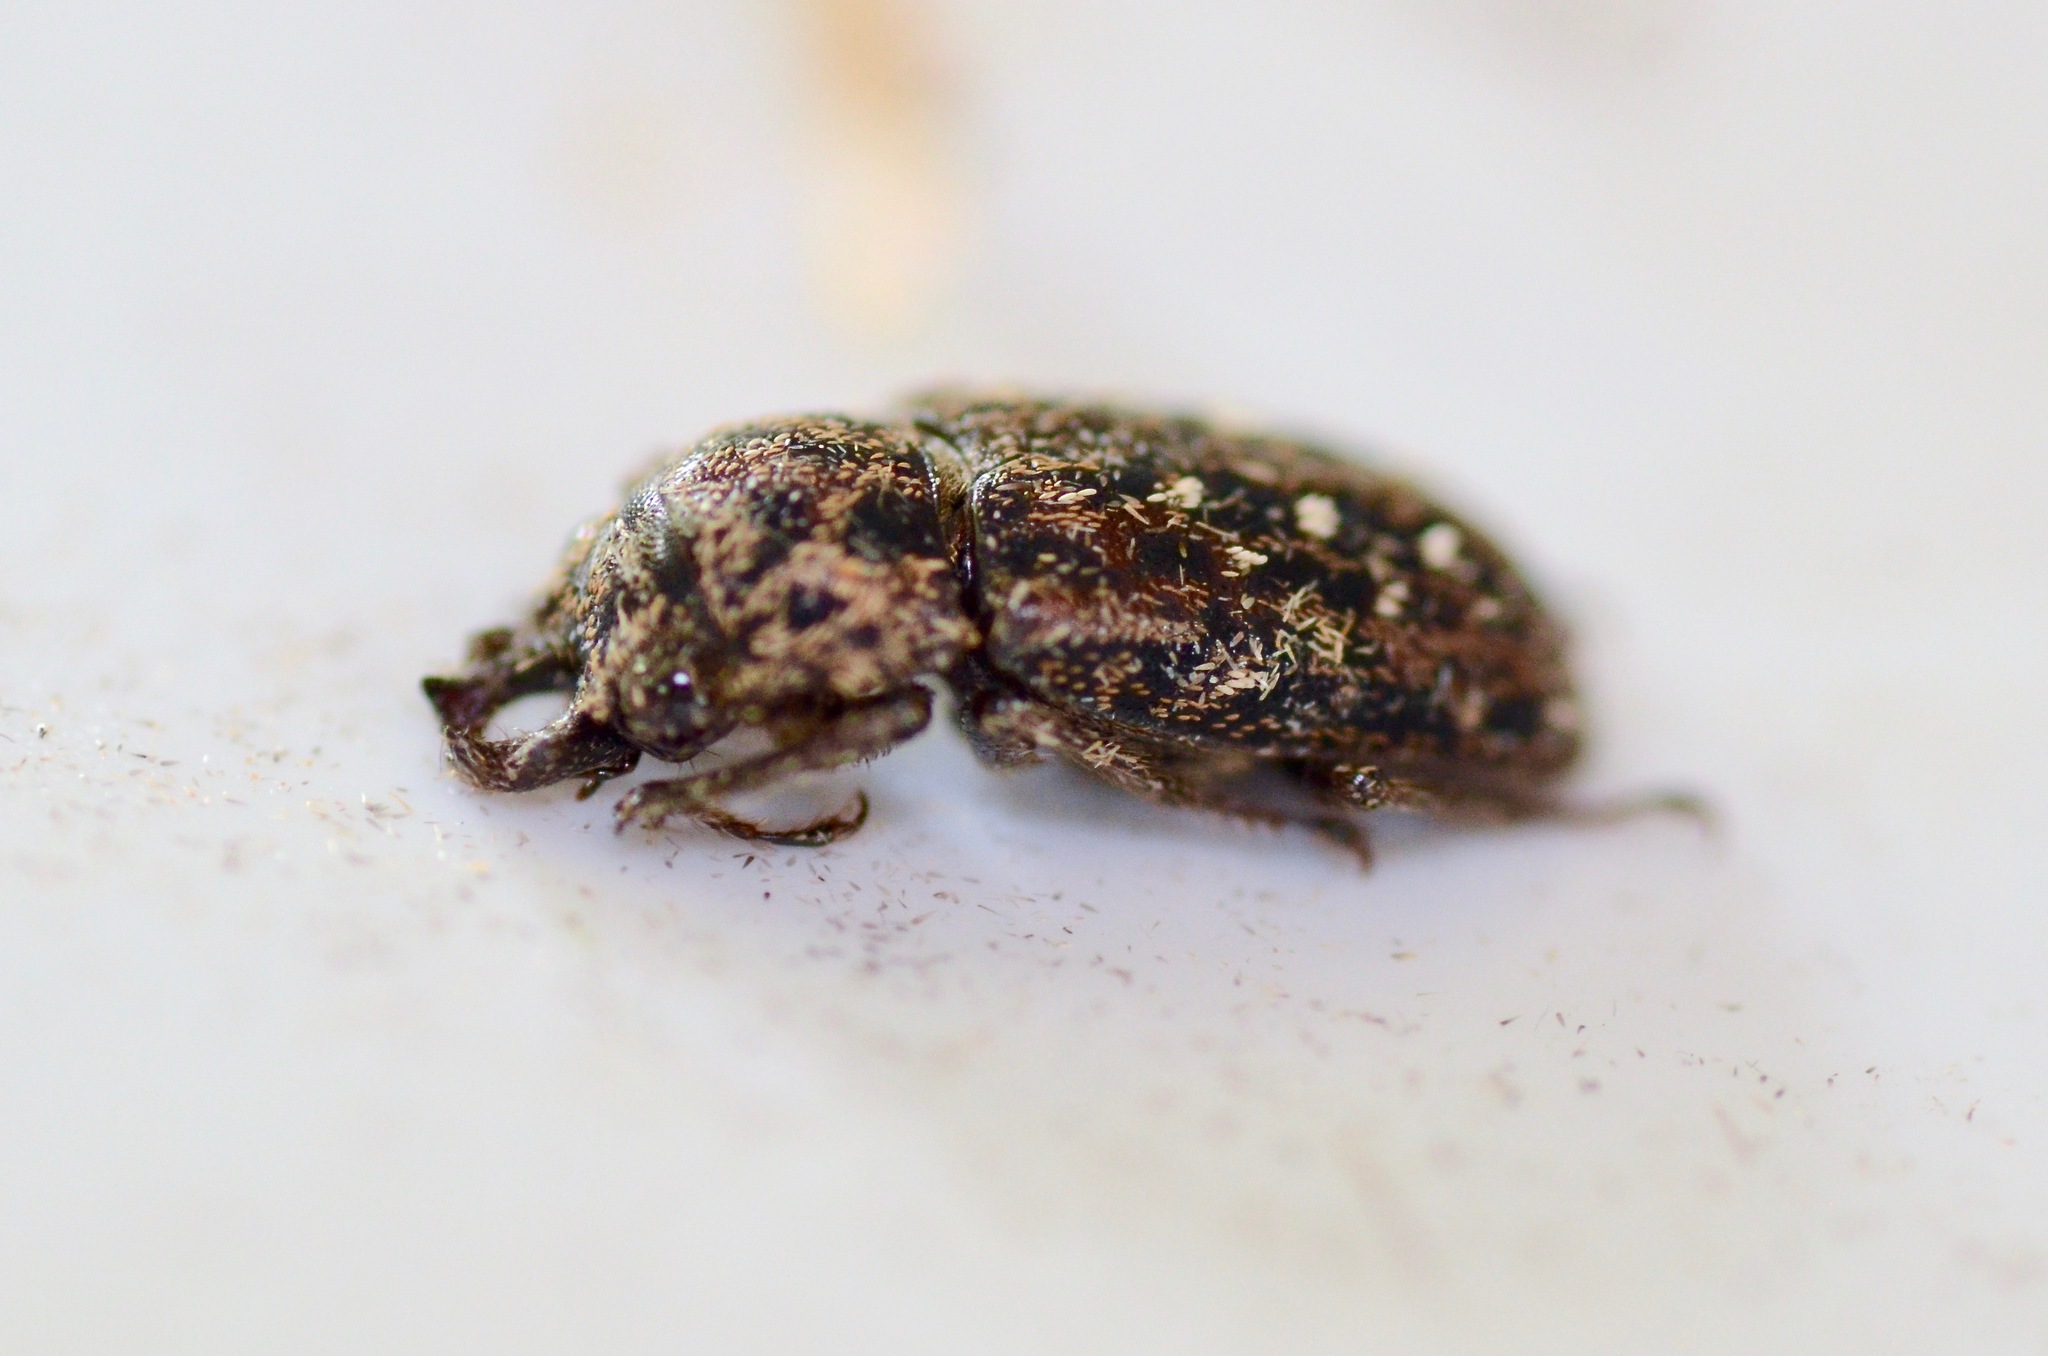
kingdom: Animalia
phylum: Arthropoda
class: Insecta
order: Coleoptera
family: Lucanidae
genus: Mitophyllus
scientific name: Mitophyllus arcuatus
